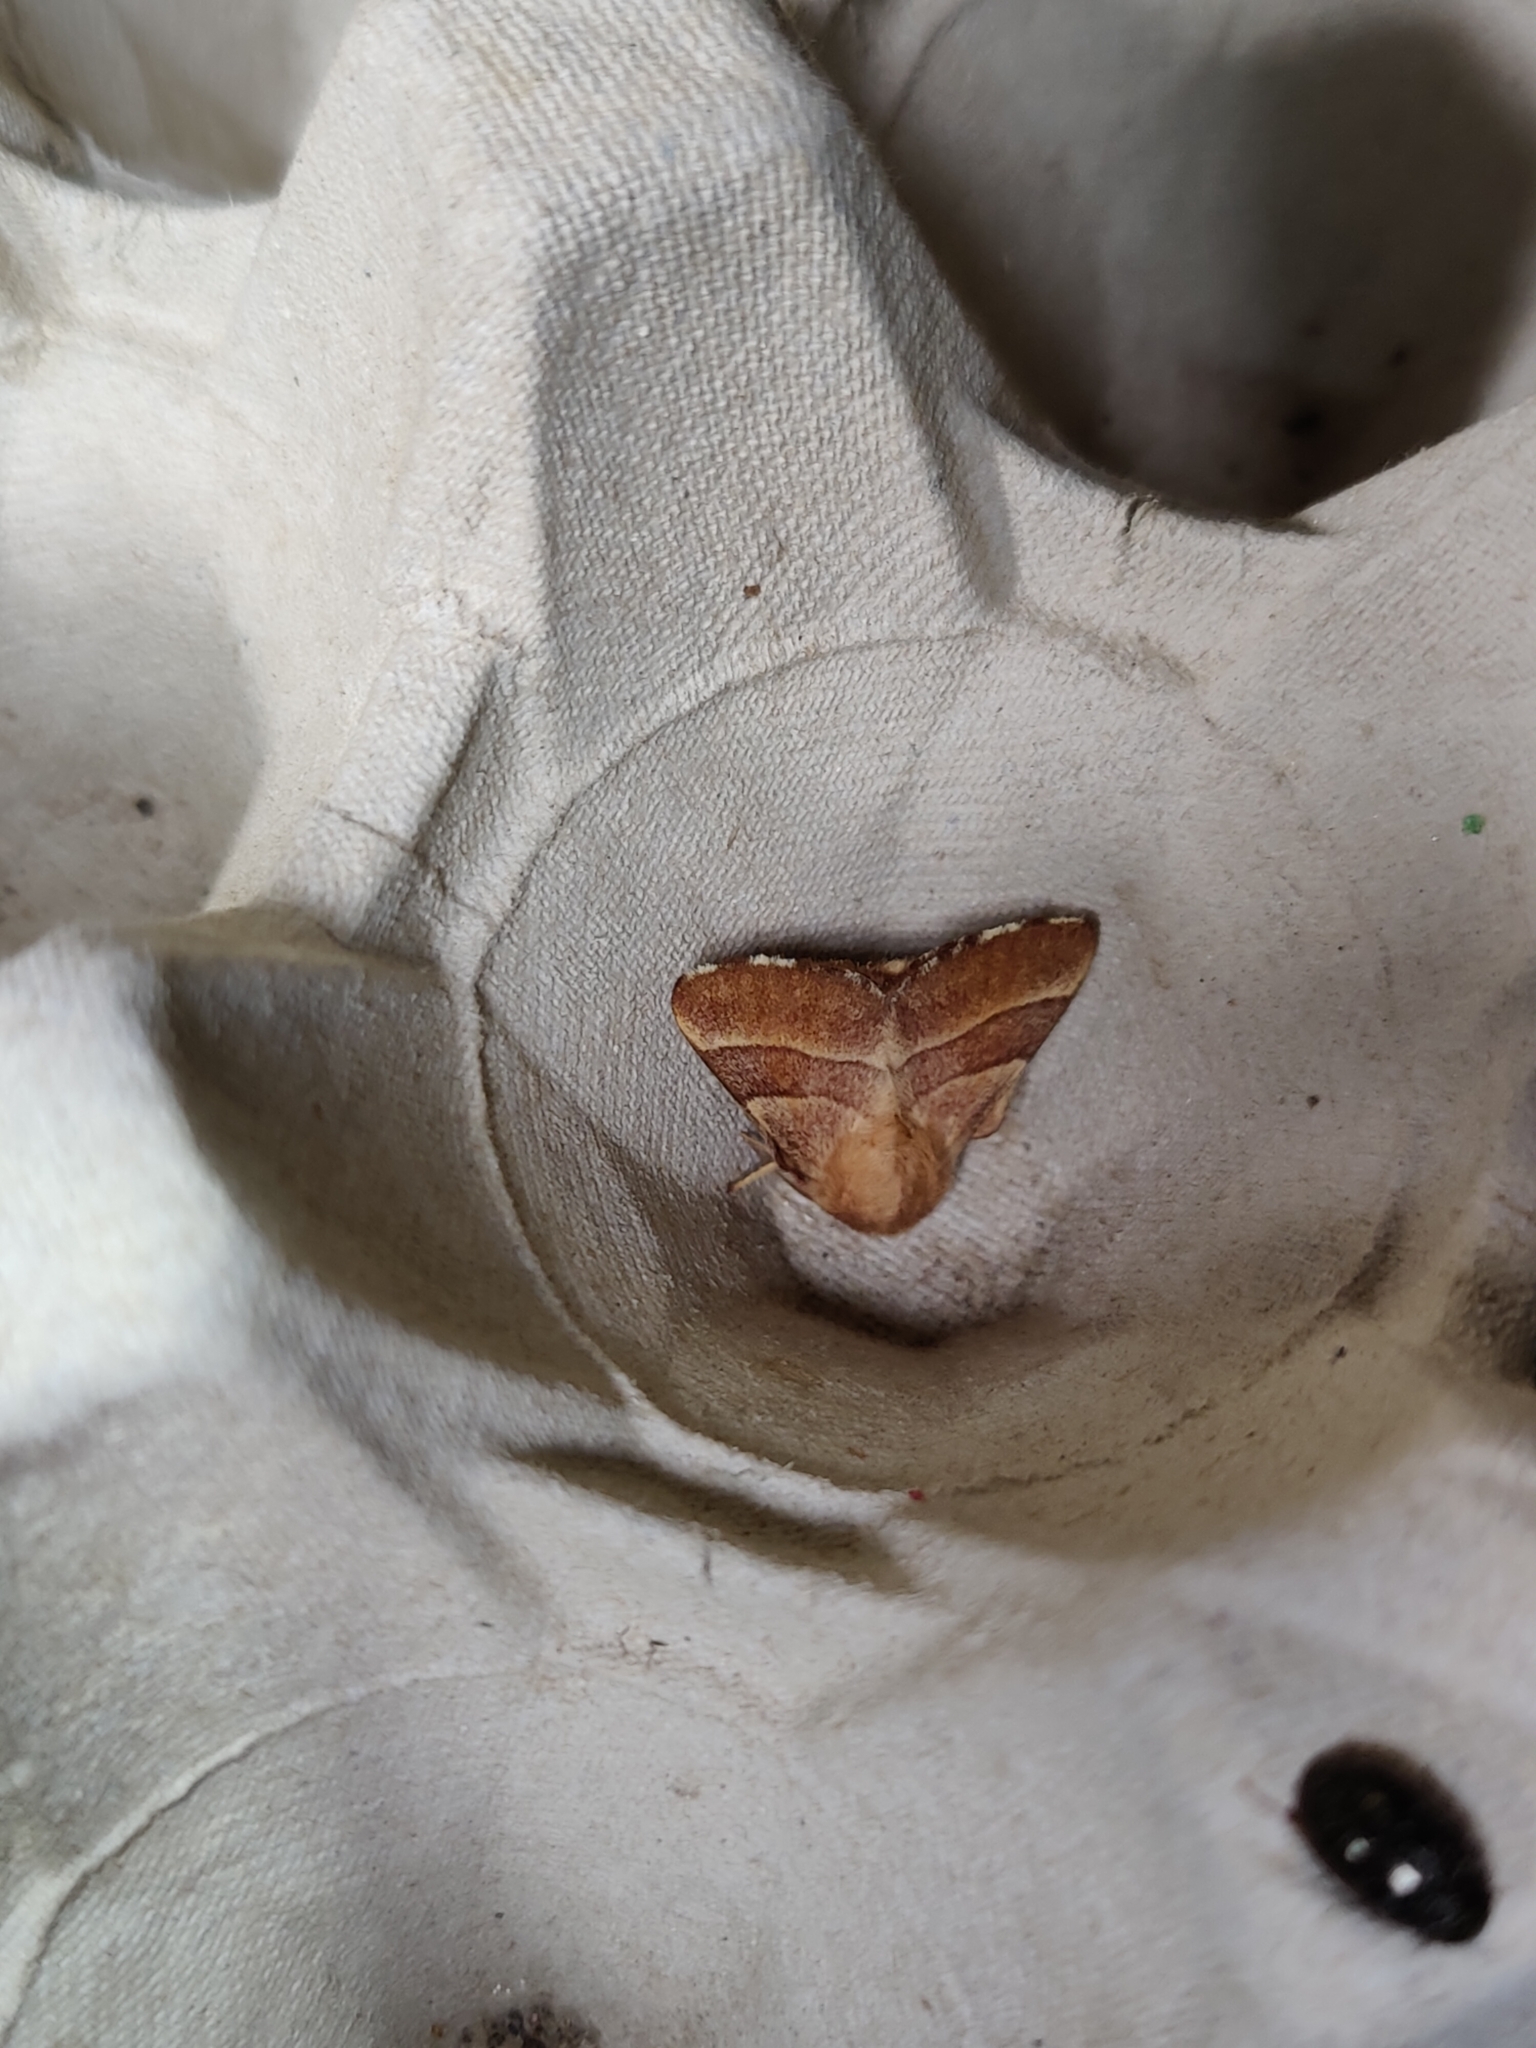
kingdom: Animalia
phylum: Arthropoda
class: Insecta
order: Lepidoptera
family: Lasiocampidae
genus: Malacosoma
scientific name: Malacosoma neustria
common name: The lackey
